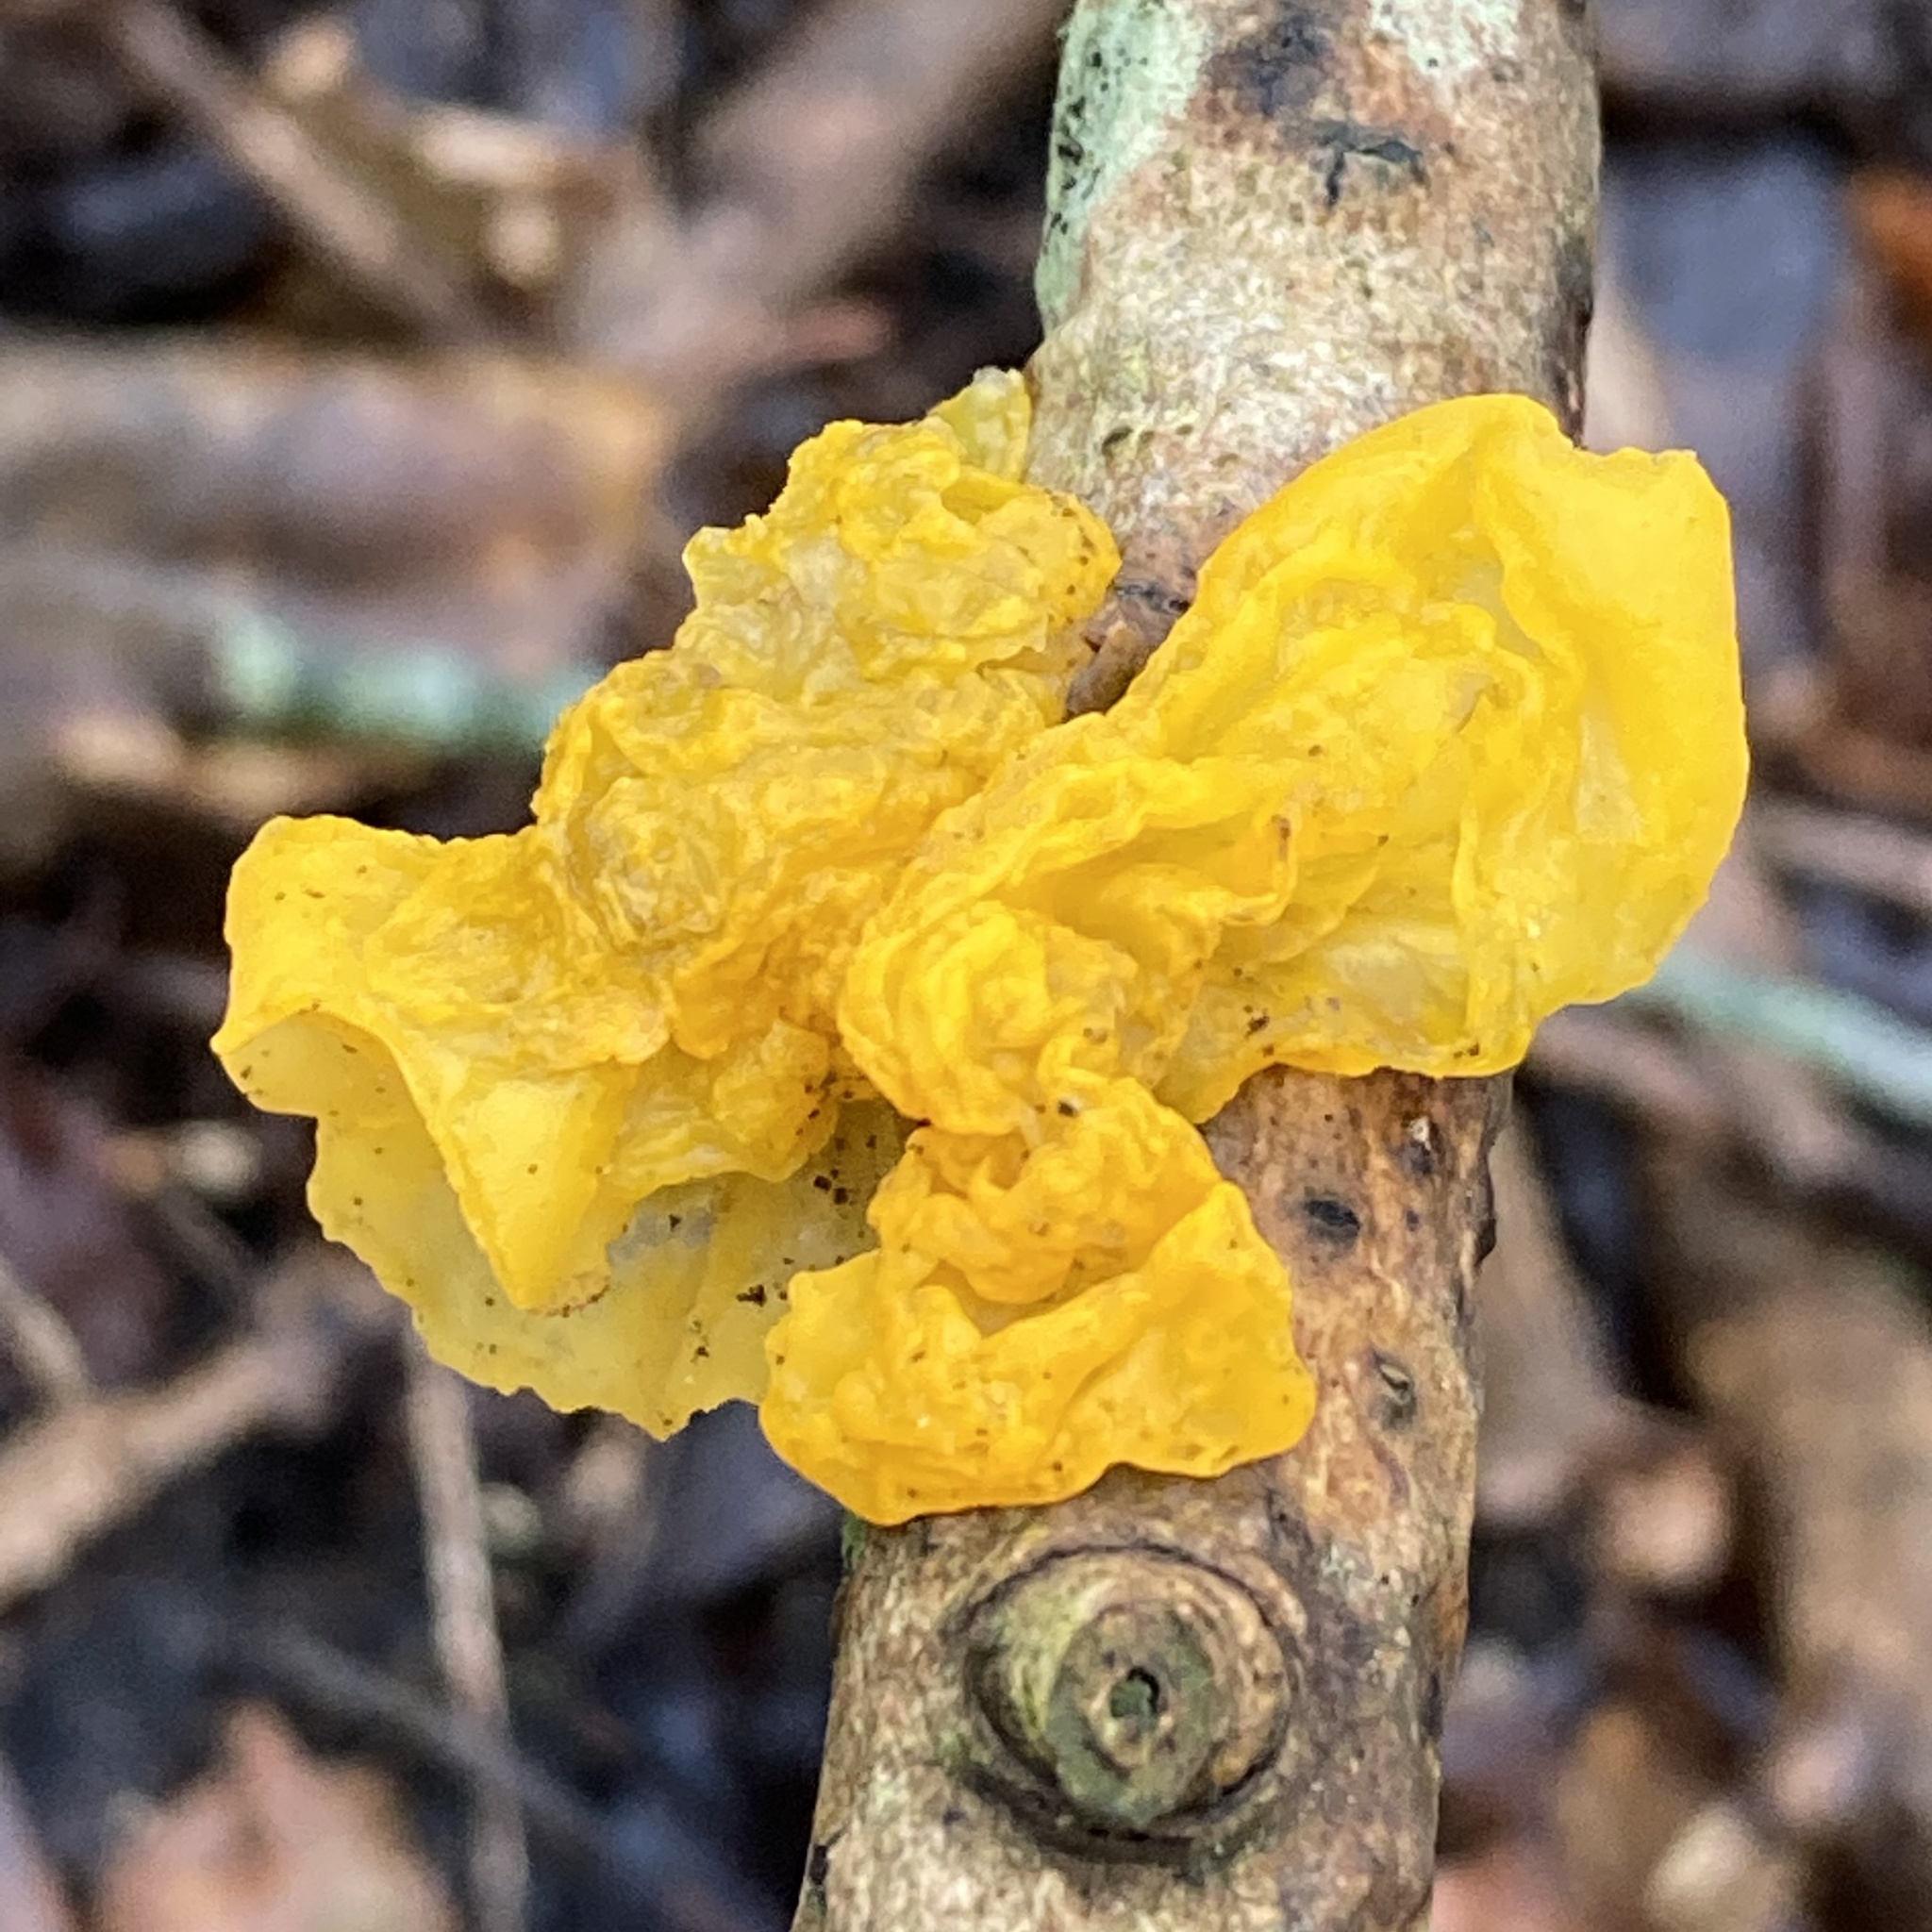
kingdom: Fungi
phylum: Basidiomycota
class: Tremellomycetes
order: Tremellales
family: Tremellaceae
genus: Tremella
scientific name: Tremella mesenterica
